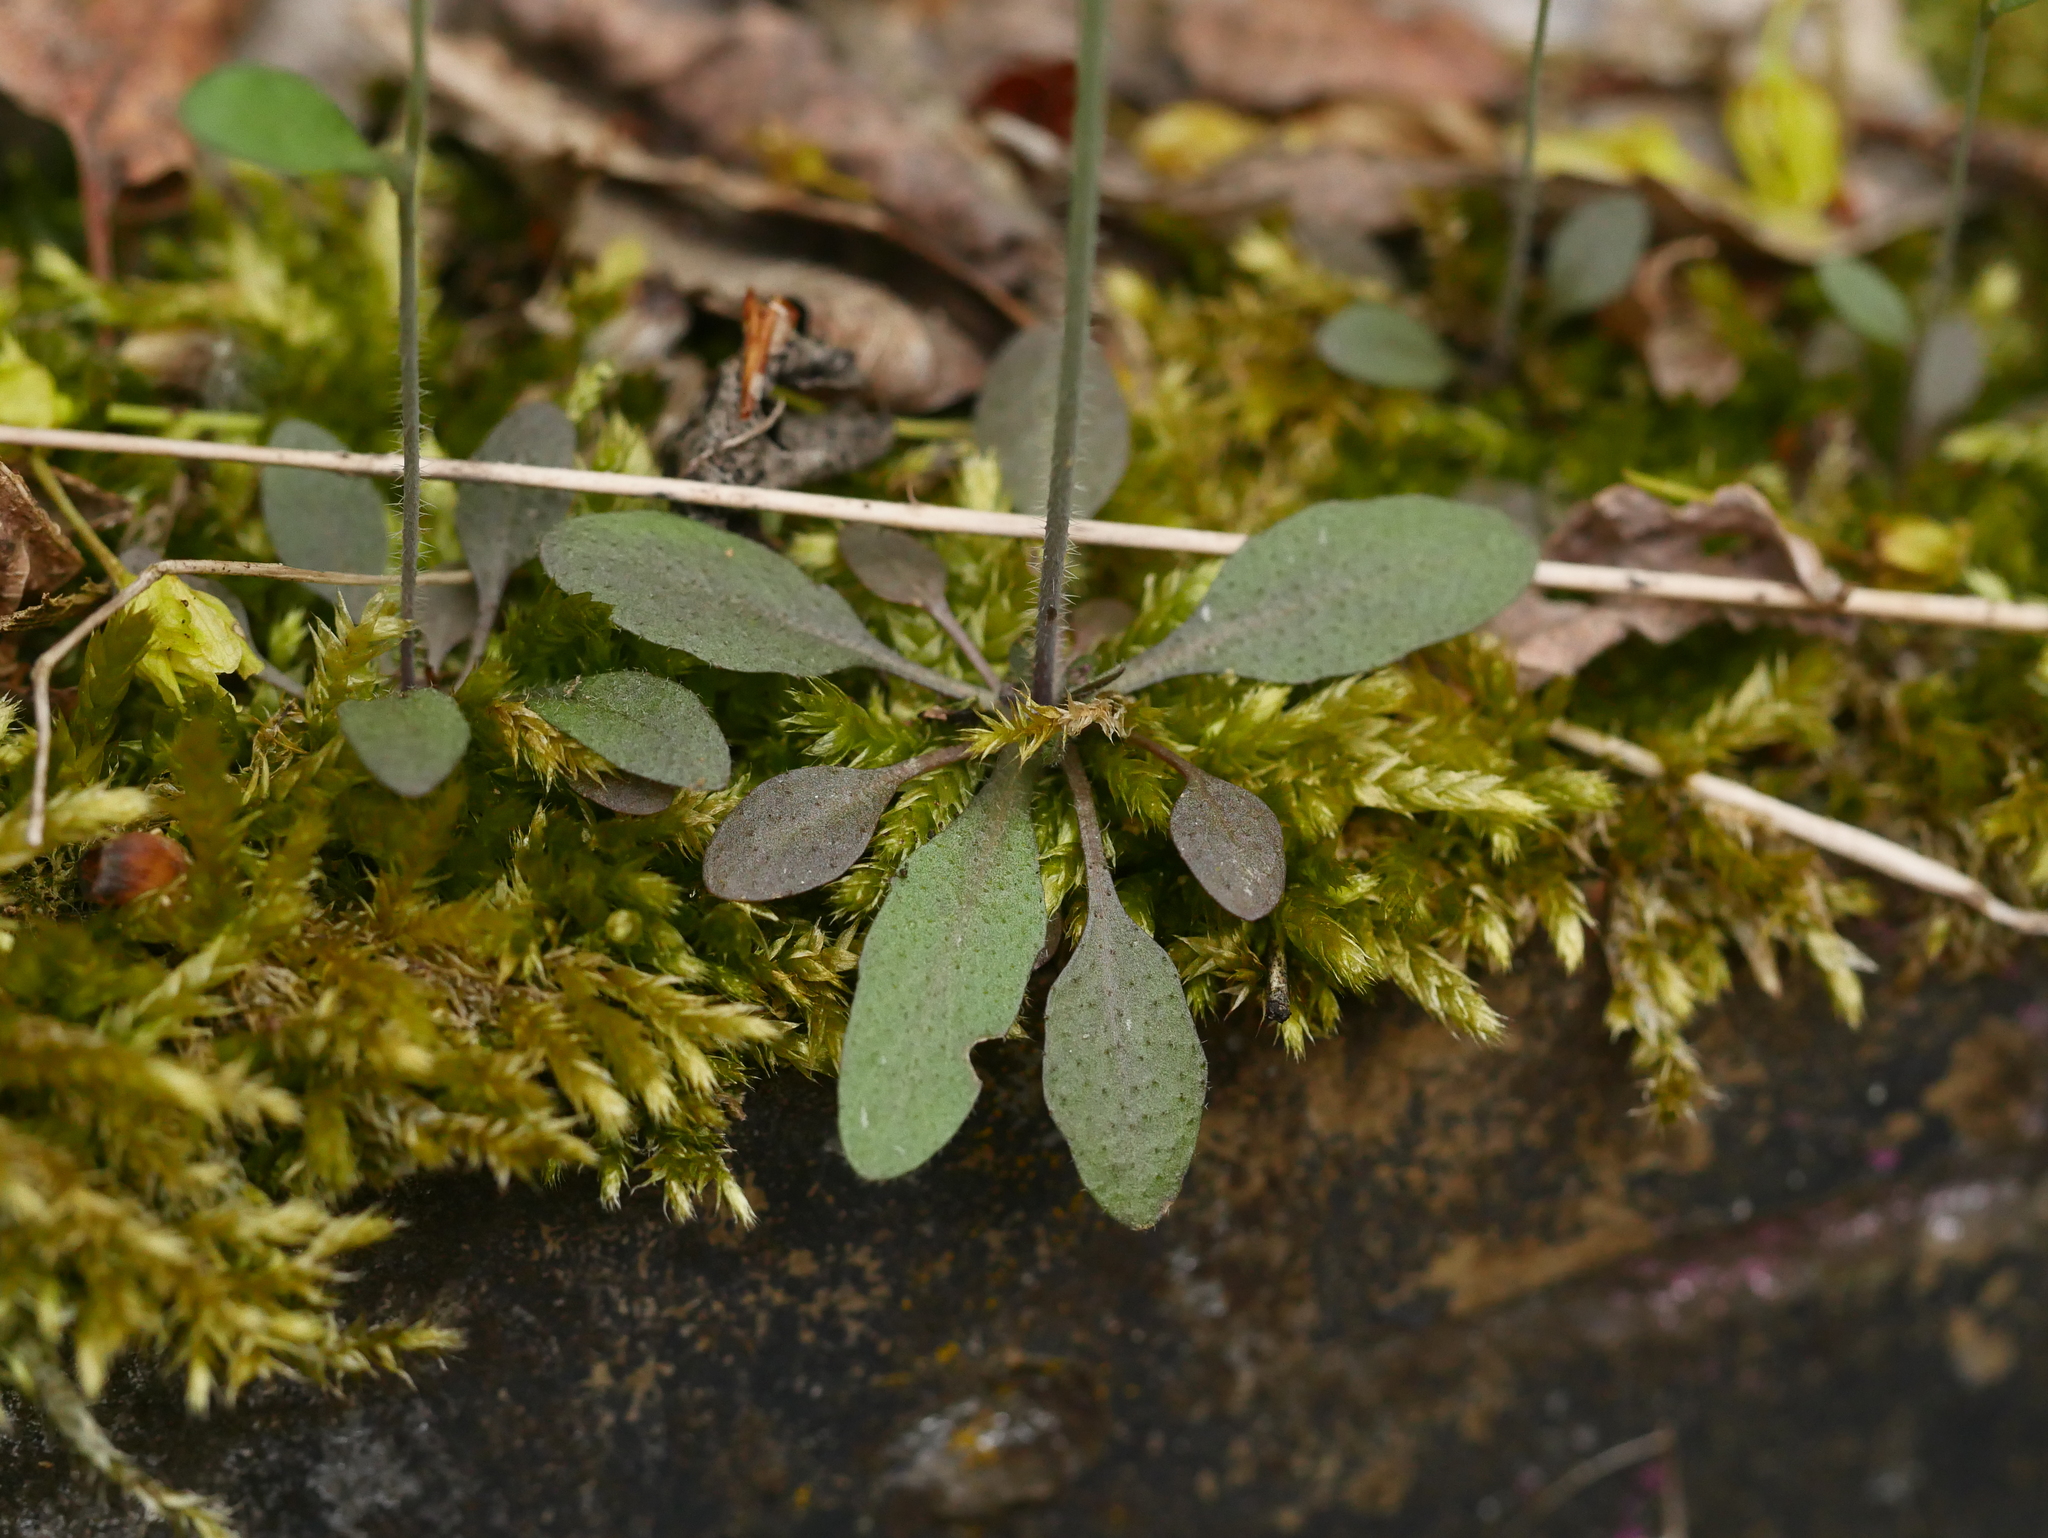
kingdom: Plantae
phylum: Tracheophyta
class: Magnoliopsida
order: Brassicales
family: Brassicaceae
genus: Arabidopsis
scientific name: Arabidopsis thaliana
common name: Thale cress
